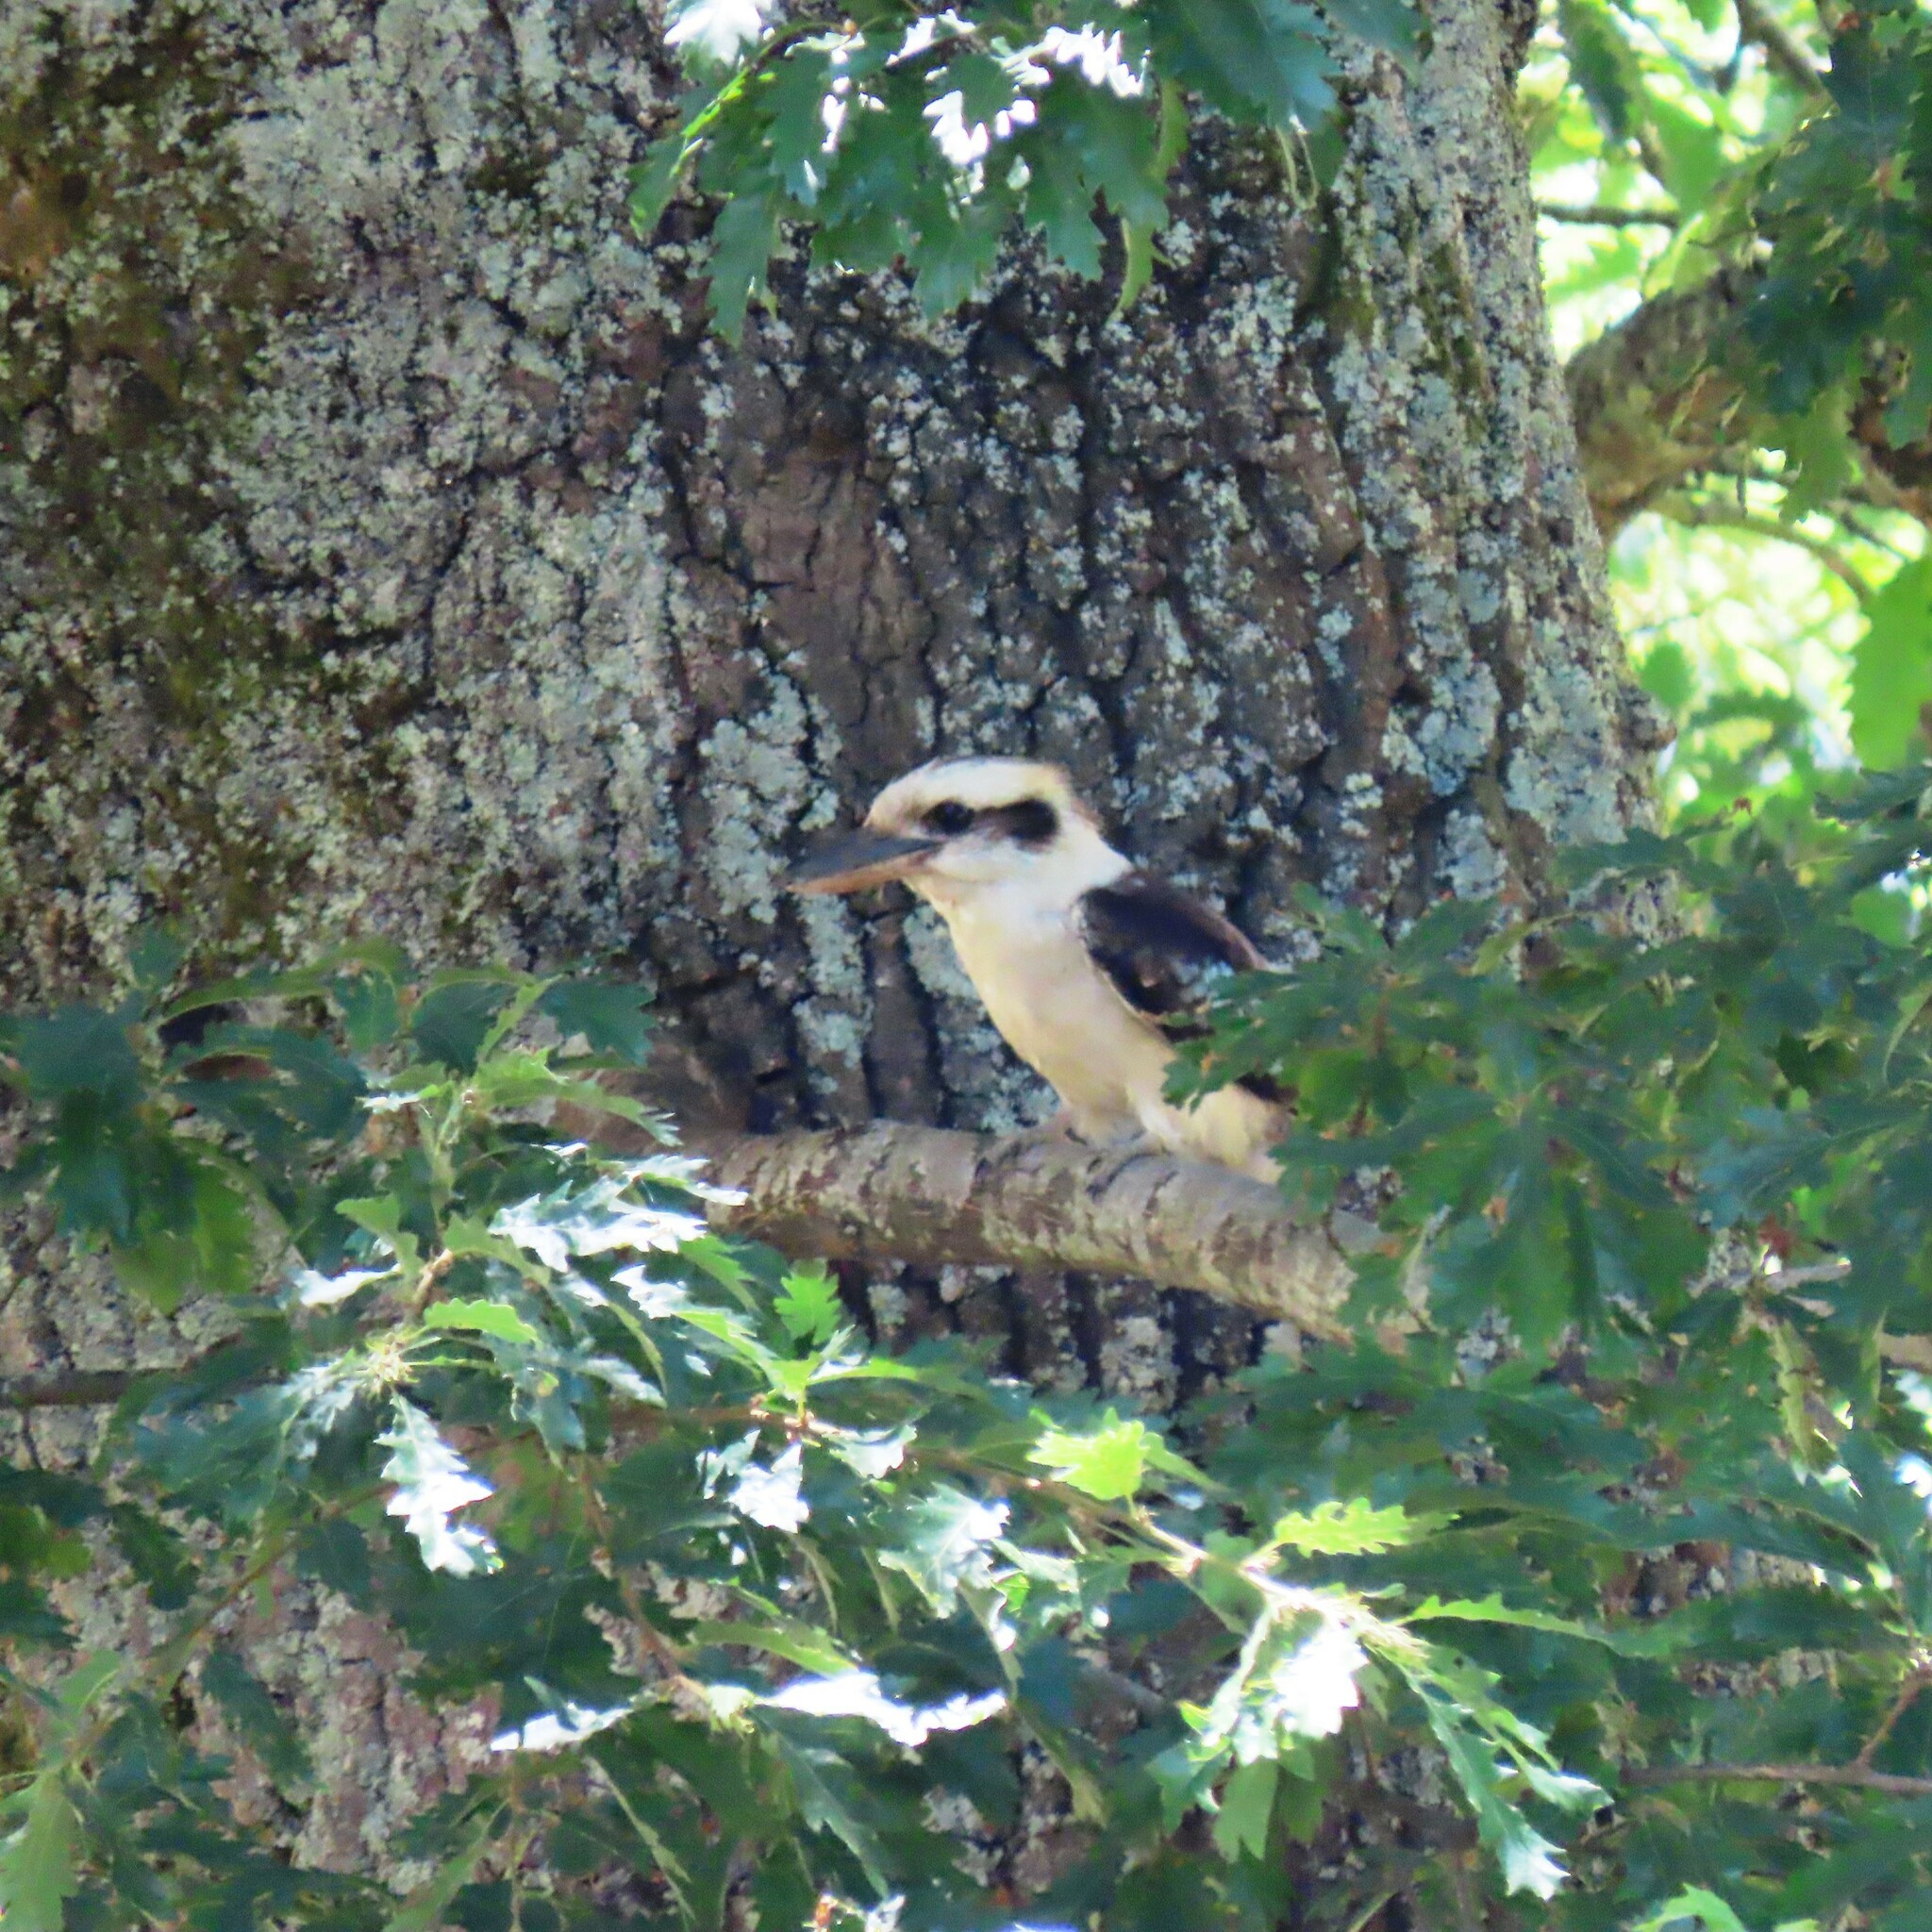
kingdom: Animalia
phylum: Chordata
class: Aves
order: Coraciiformes
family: Alcedinidae
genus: Dacelo
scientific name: Dacelo novaeguineae
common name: Laughing kookaburra
